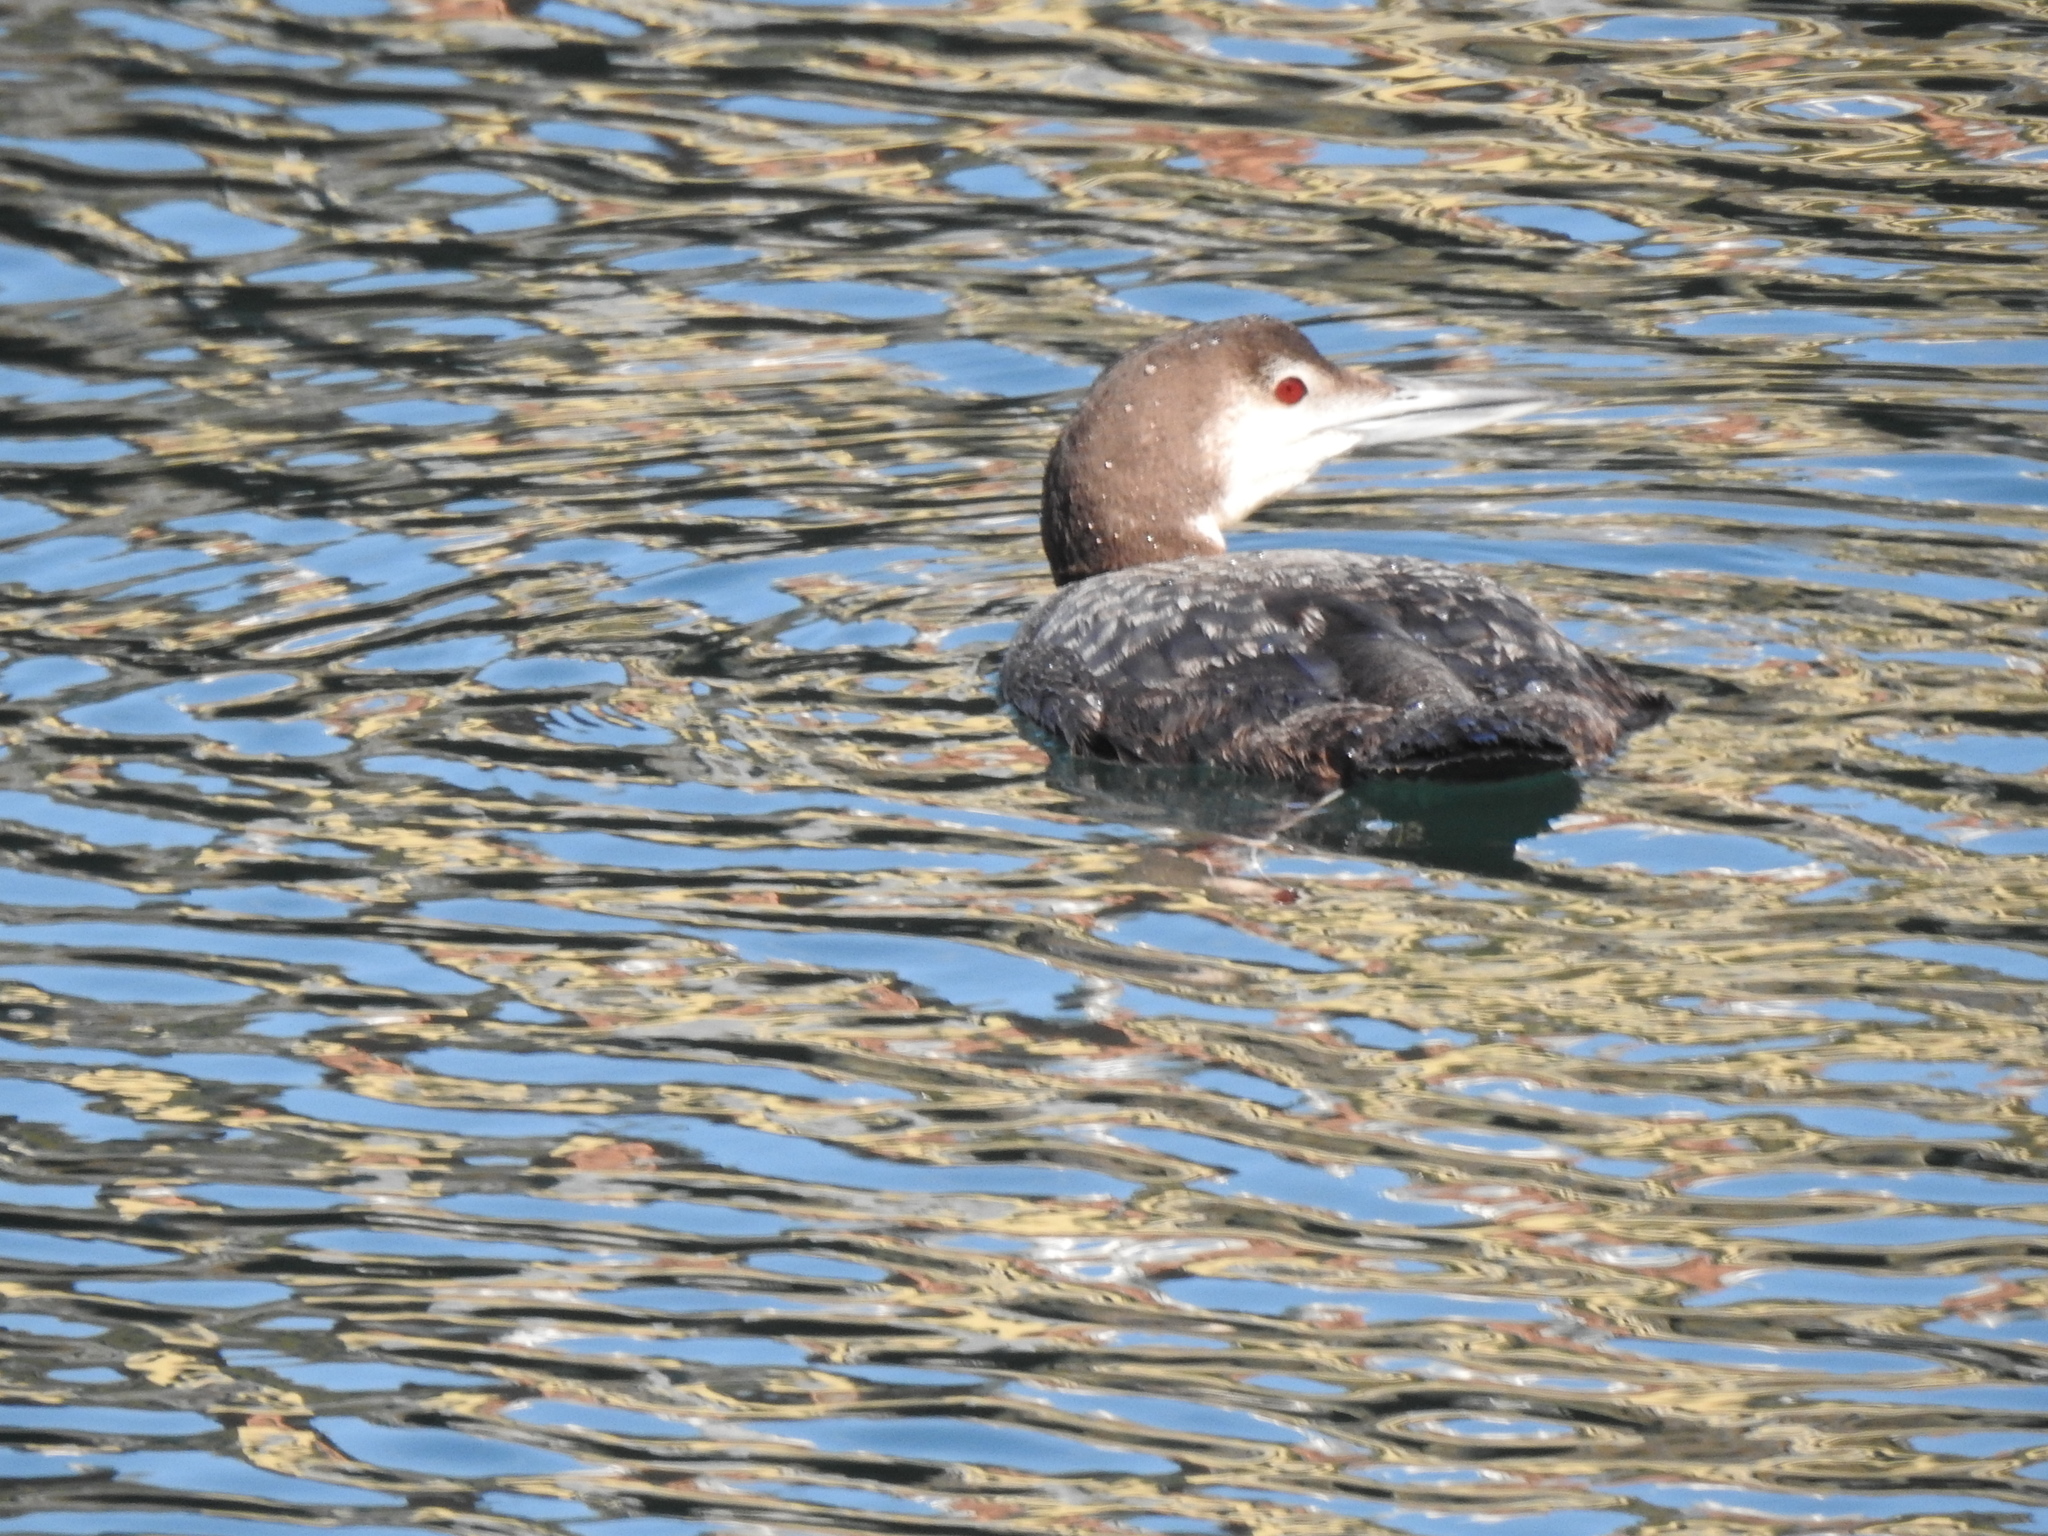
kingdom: Animalia
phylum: Chordata
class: Aves
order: Gaviiformes
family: Gaviidae
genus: Gavia
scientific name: Gavia immer
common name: Common loon
